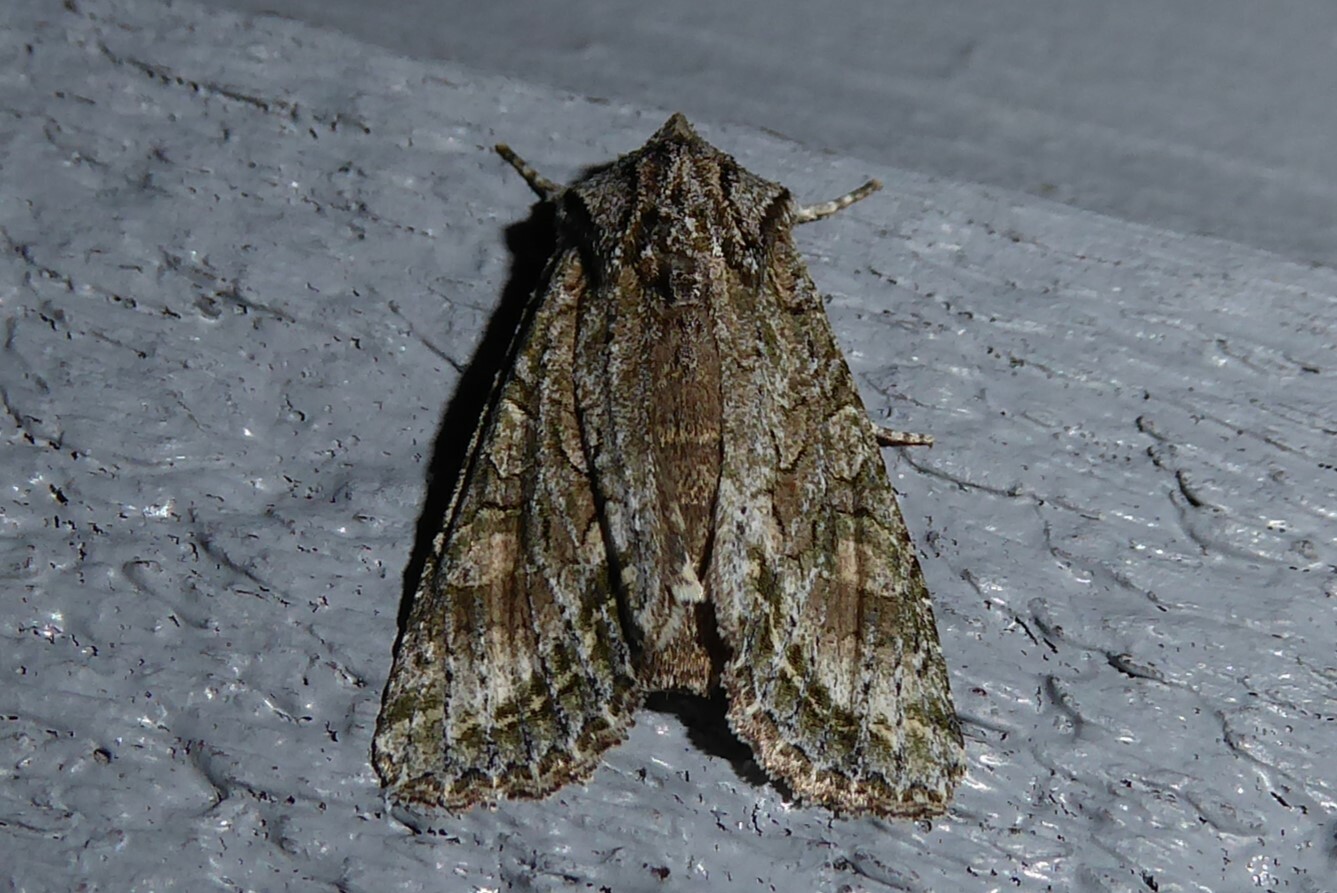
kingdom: Animalia
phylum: Arthropoda
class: Insecta
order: Lepidoptera
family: Noctuidae
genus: Ichneutica
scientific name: Ichneutica mutans
